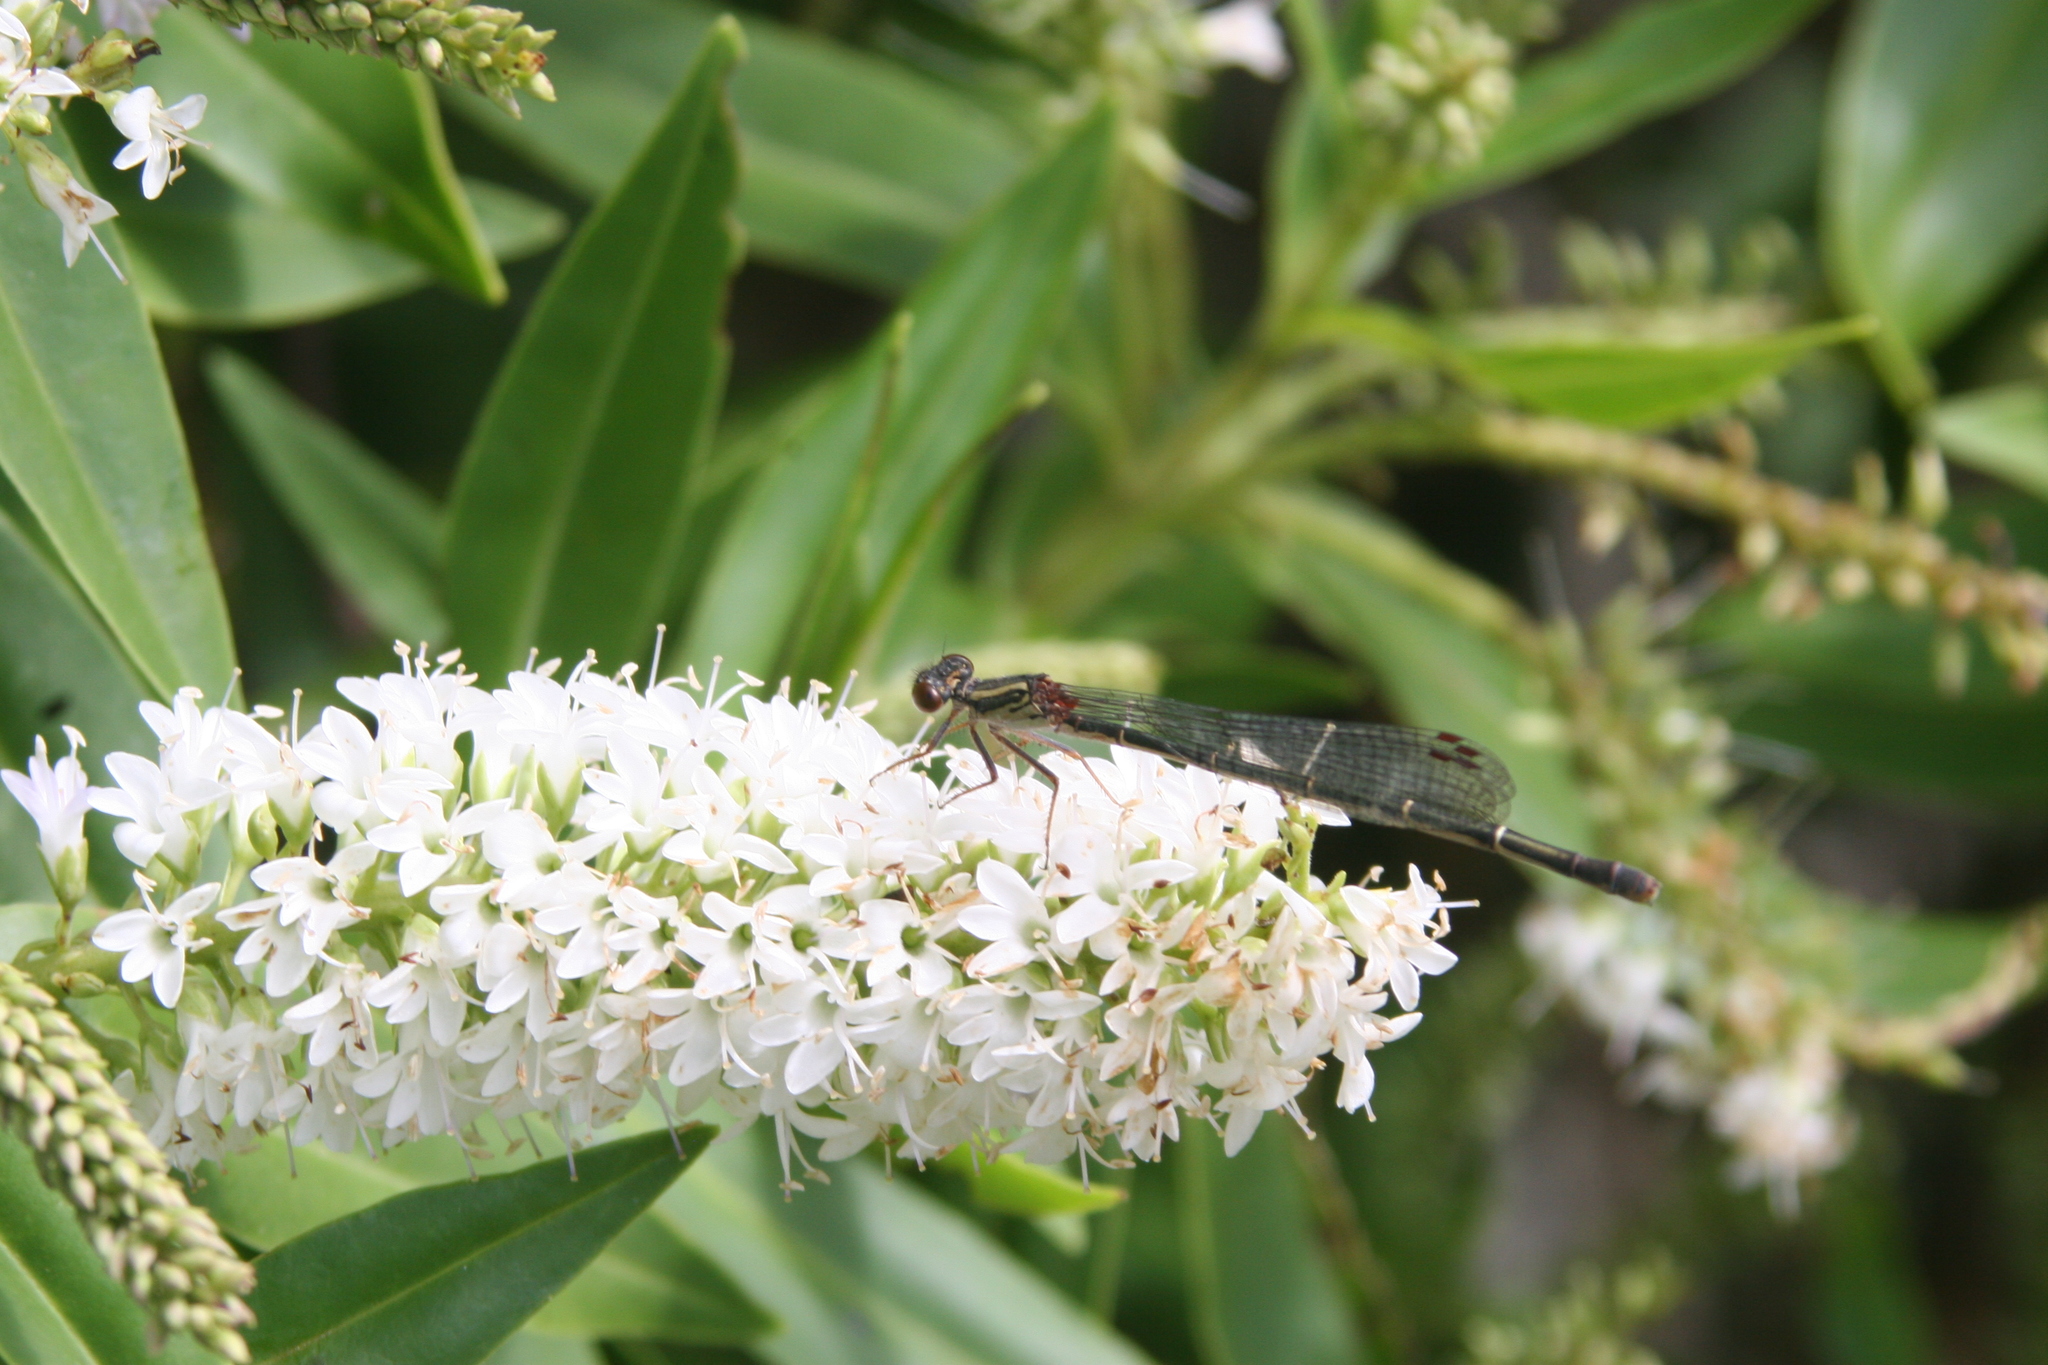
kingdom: Animalia
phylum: Arthropoda
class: Insecta
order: Odonata
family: Coenagrionidae
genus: Xanthocnemis
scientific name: Xanthocnemis zealandica
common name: Common redcoat damselfly
